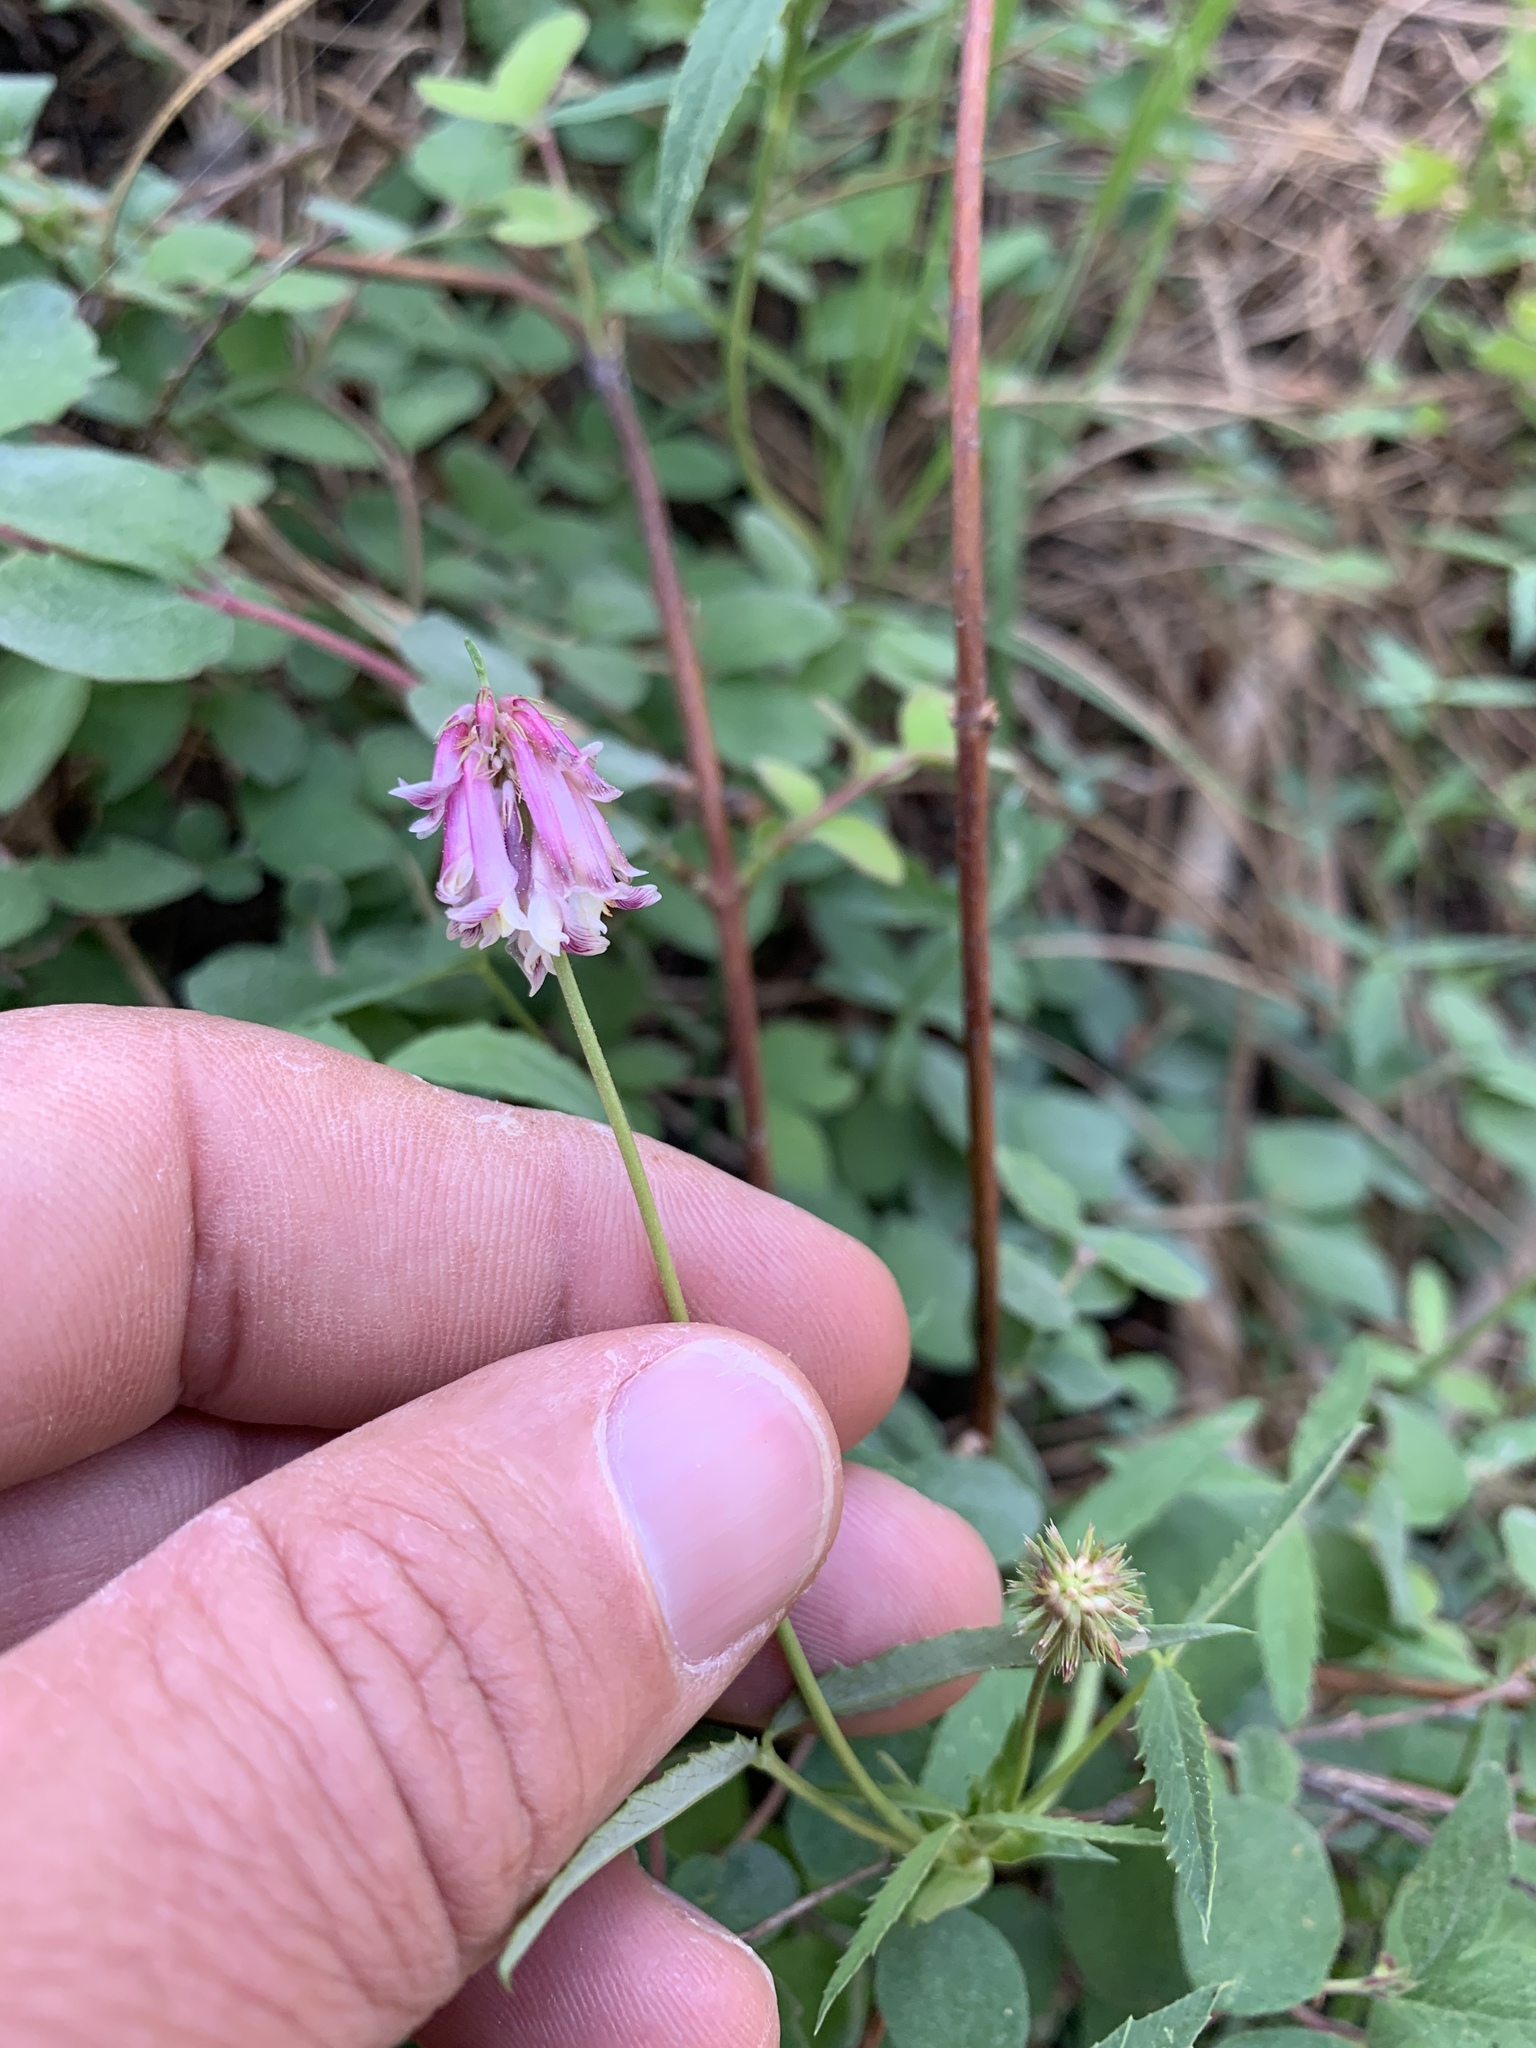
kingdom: Plantae
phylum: Tracheophyta
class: Magnoliopsida
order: Fabales
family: Fabaceae
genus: Trifolium
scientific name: Trifolium productum
